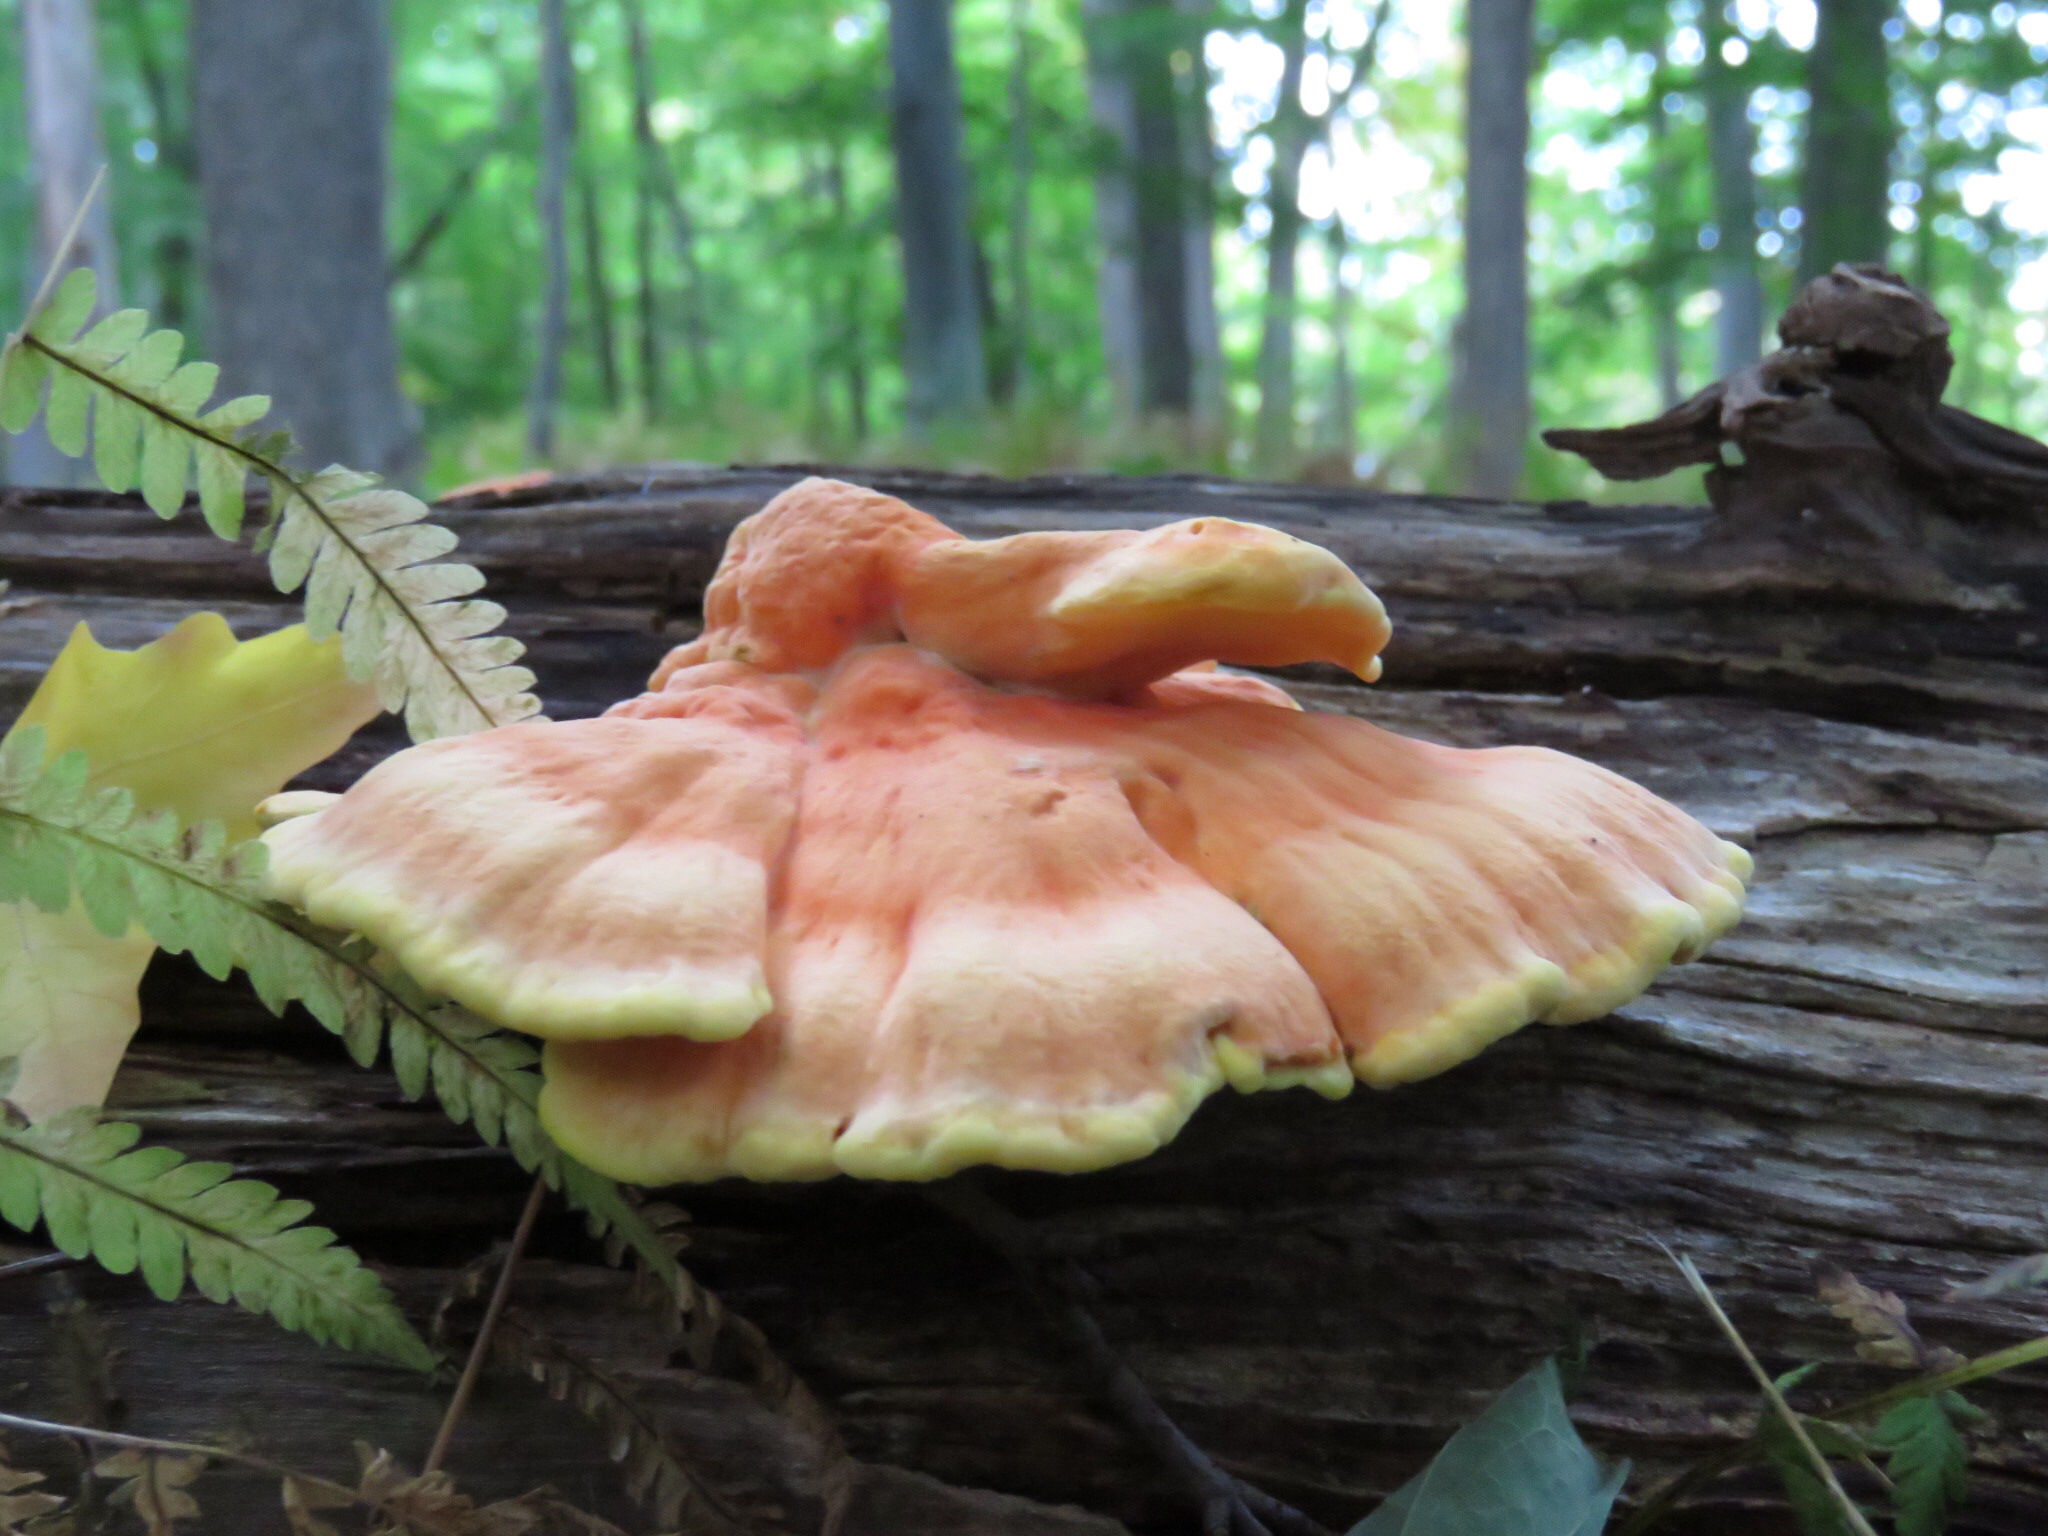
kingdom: Fungi
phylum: Basidiomycota
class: Agaricomycetes
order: Polyporales
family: Laetiporaceae
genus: Laetiporus
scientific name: Laetiporus sulphureus
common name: Chicken of the woods
